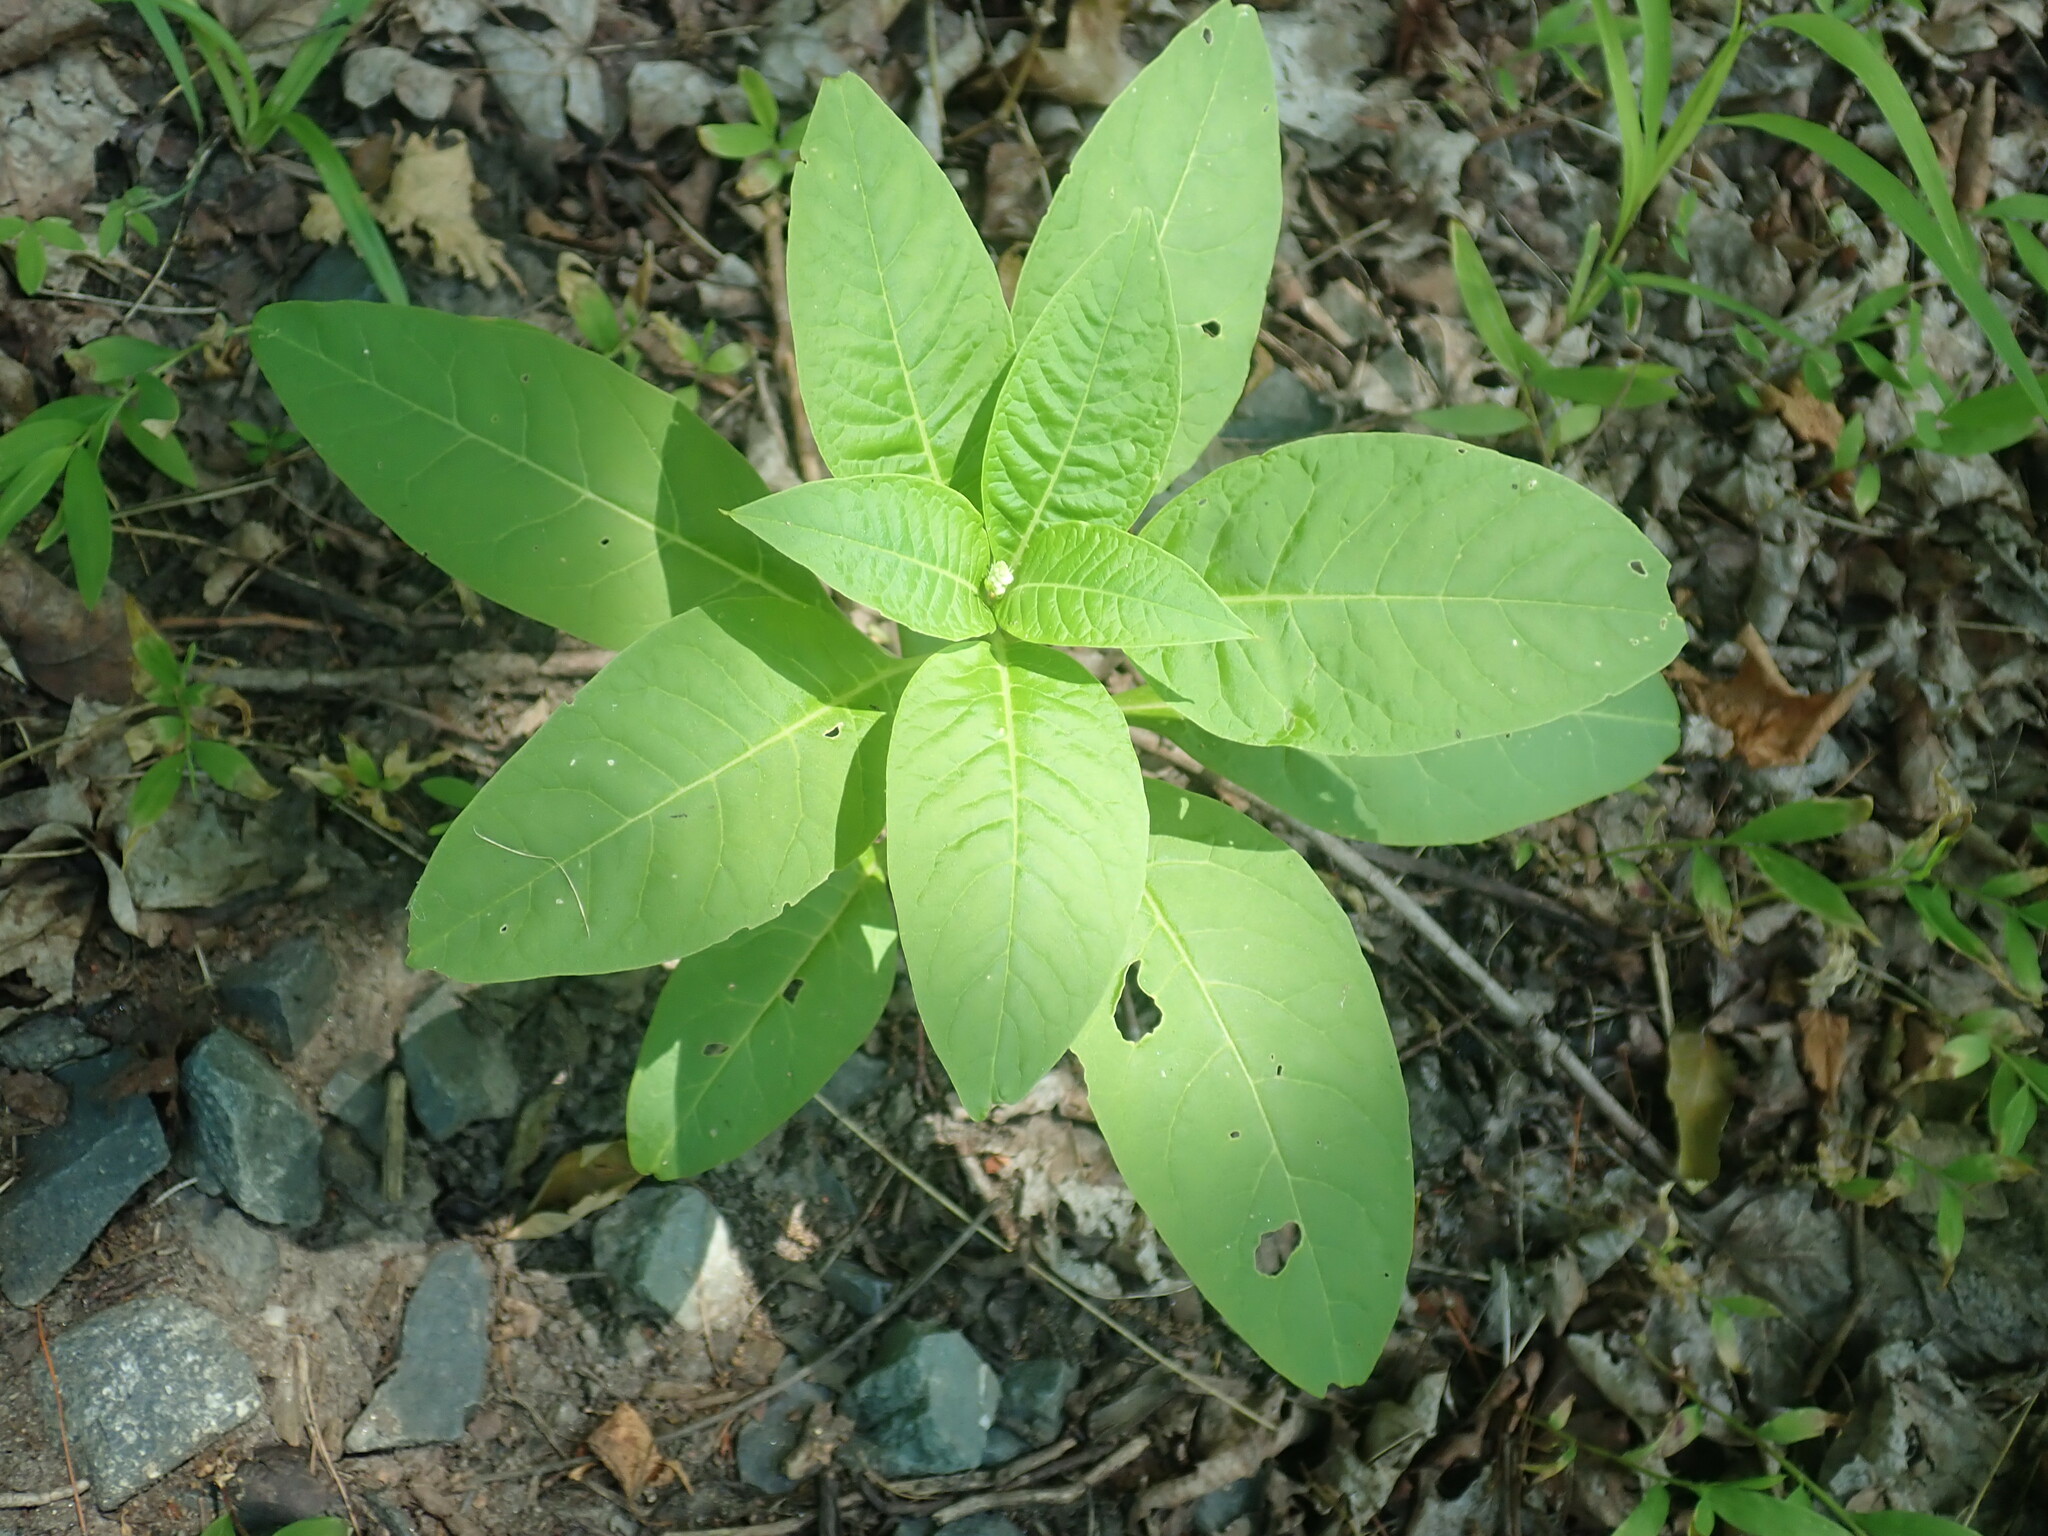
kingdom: Plantae
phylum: Tracheophyta
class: Magnoliopsida
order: Caryophyllales
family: Phytolaccaceae
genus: Phytolacca
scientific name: Phytolacca americana
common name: American pokeweed
